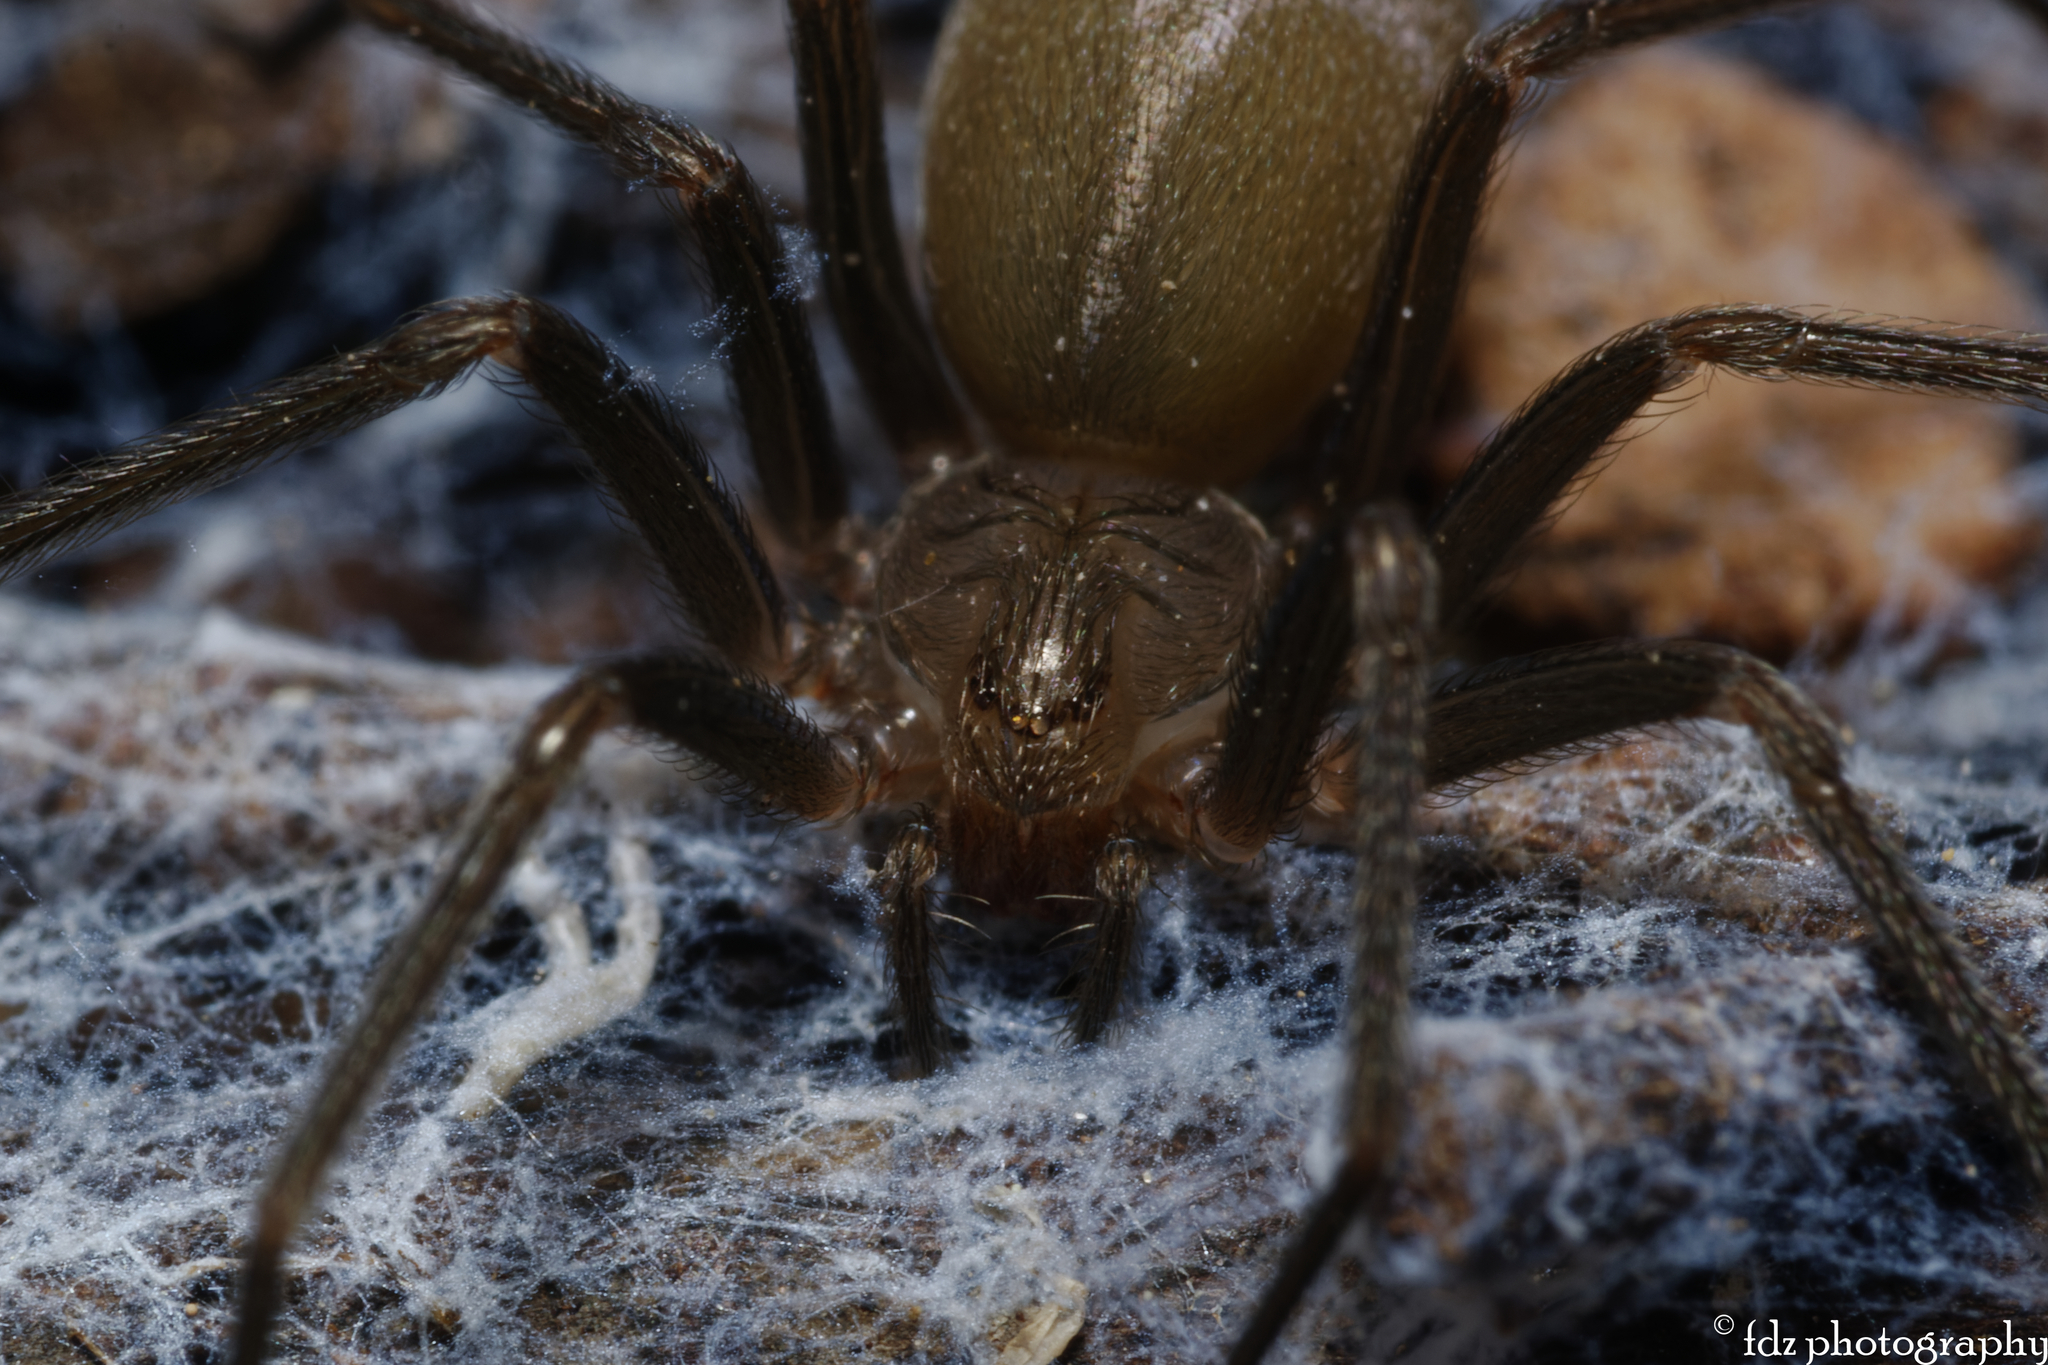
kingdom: Animalia
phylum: Arthropoda
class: Arachnida
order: Araneae
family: Sicariidae
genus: Loxosceles
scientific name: Loxosceles rufescens
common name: Mediterranean recluse spider
